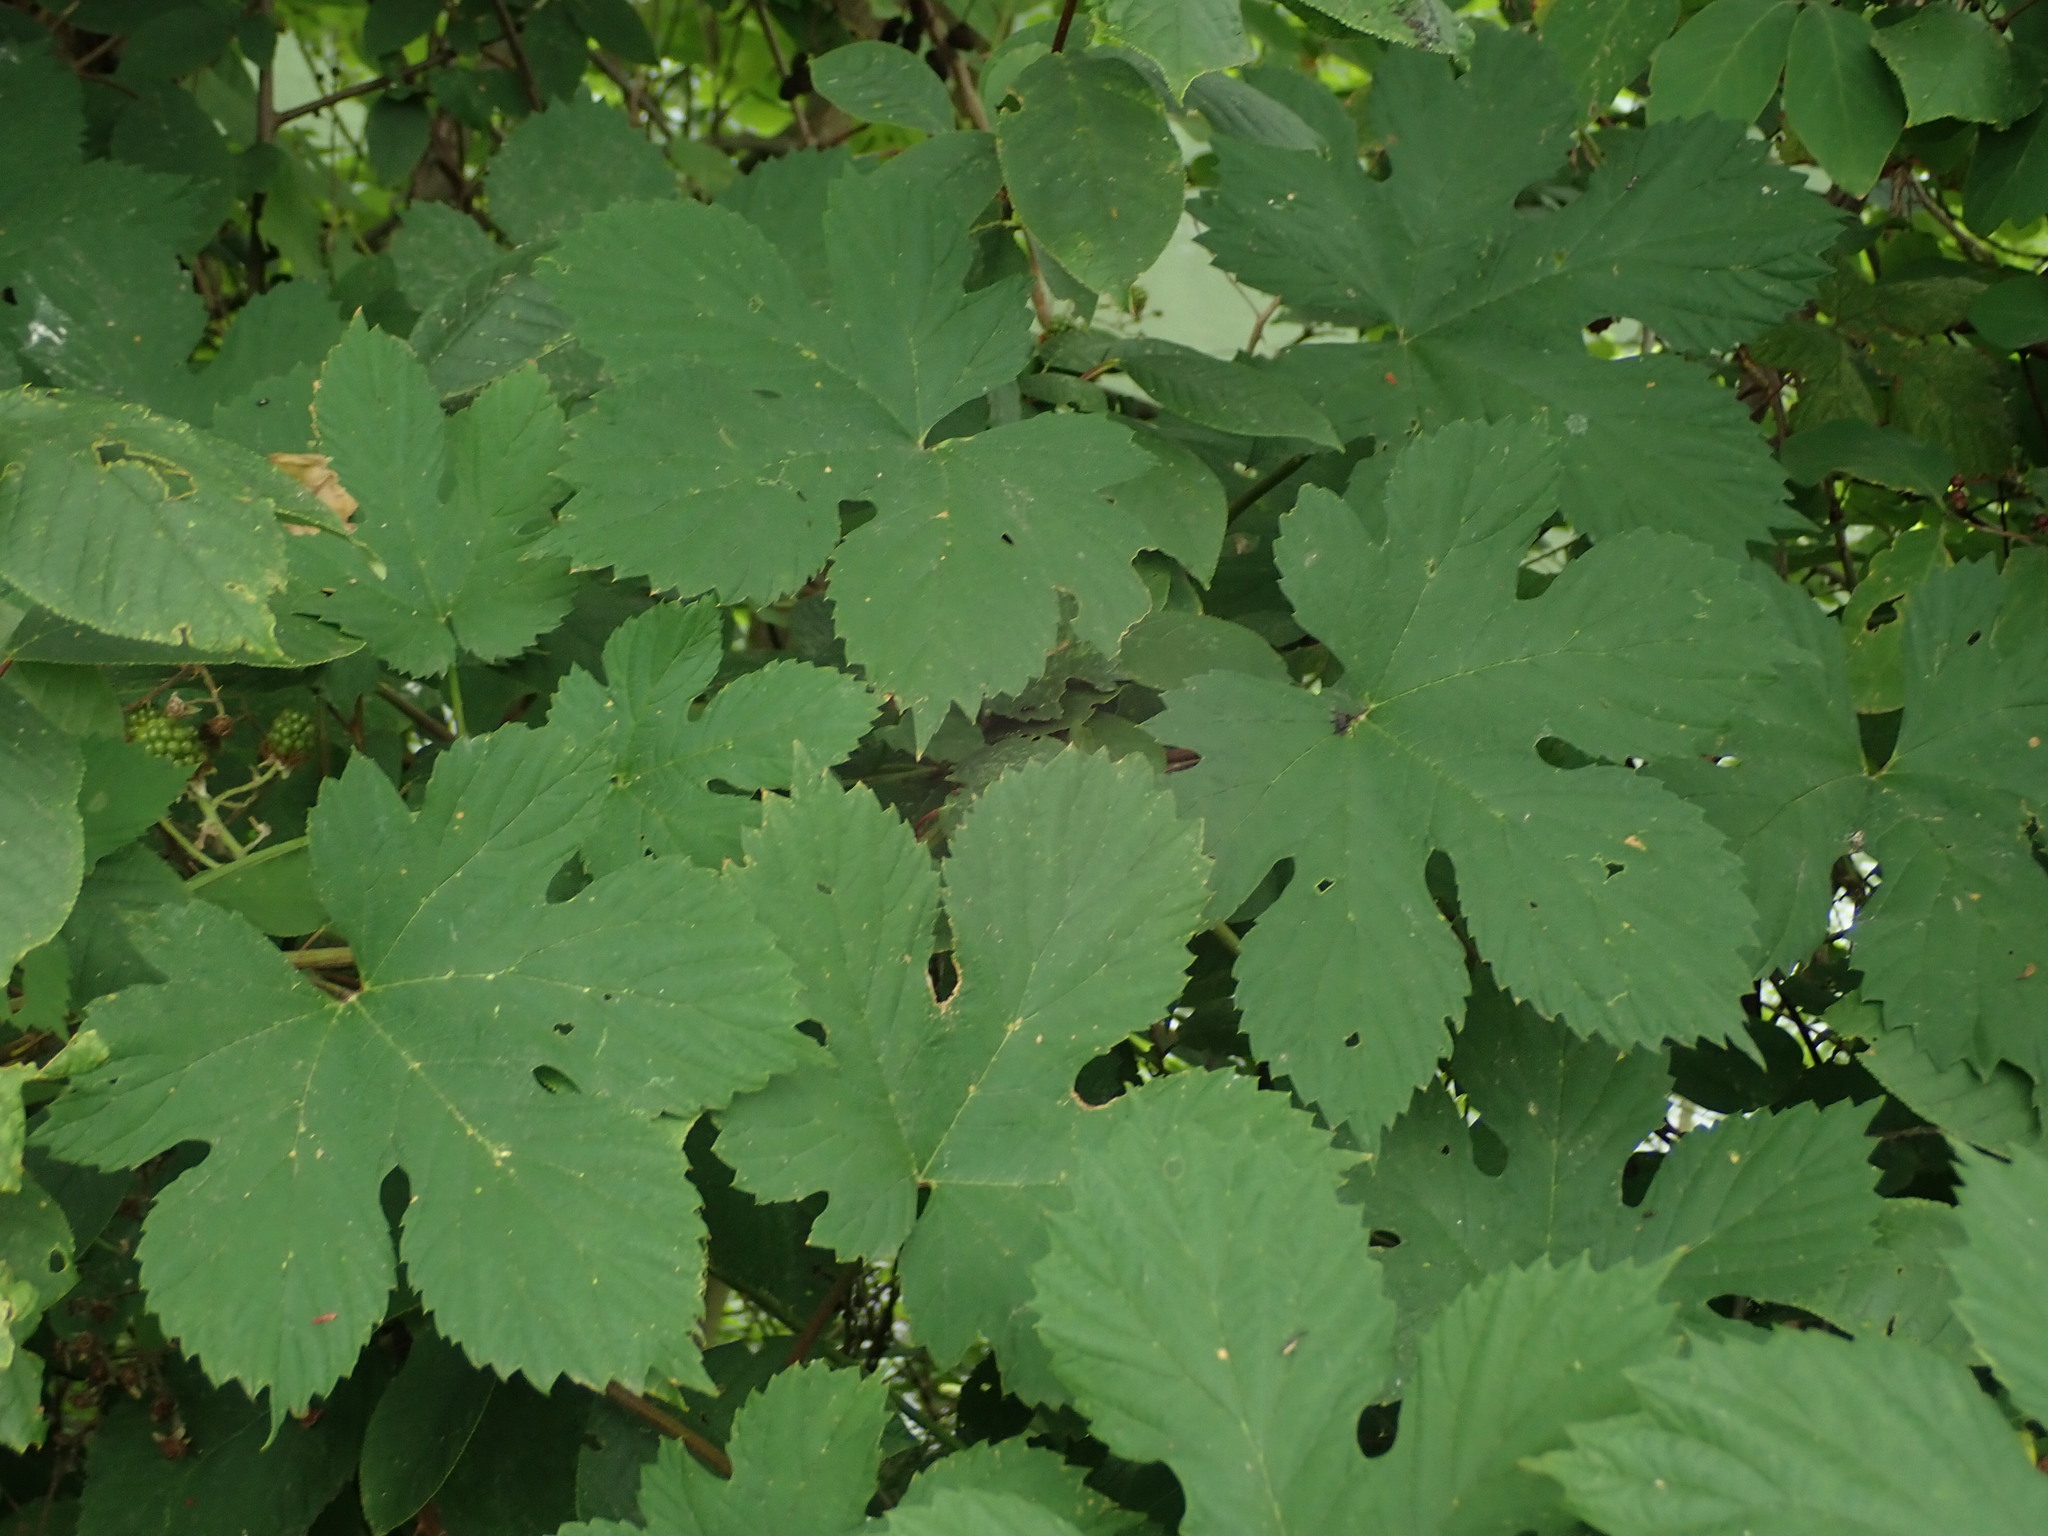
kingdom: Plantae
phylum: Tracheophyta
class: Magnoliopsida
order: Rosales
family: Cannabaceae
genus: Humulus
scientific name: Humulus lupulus
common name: Hop
